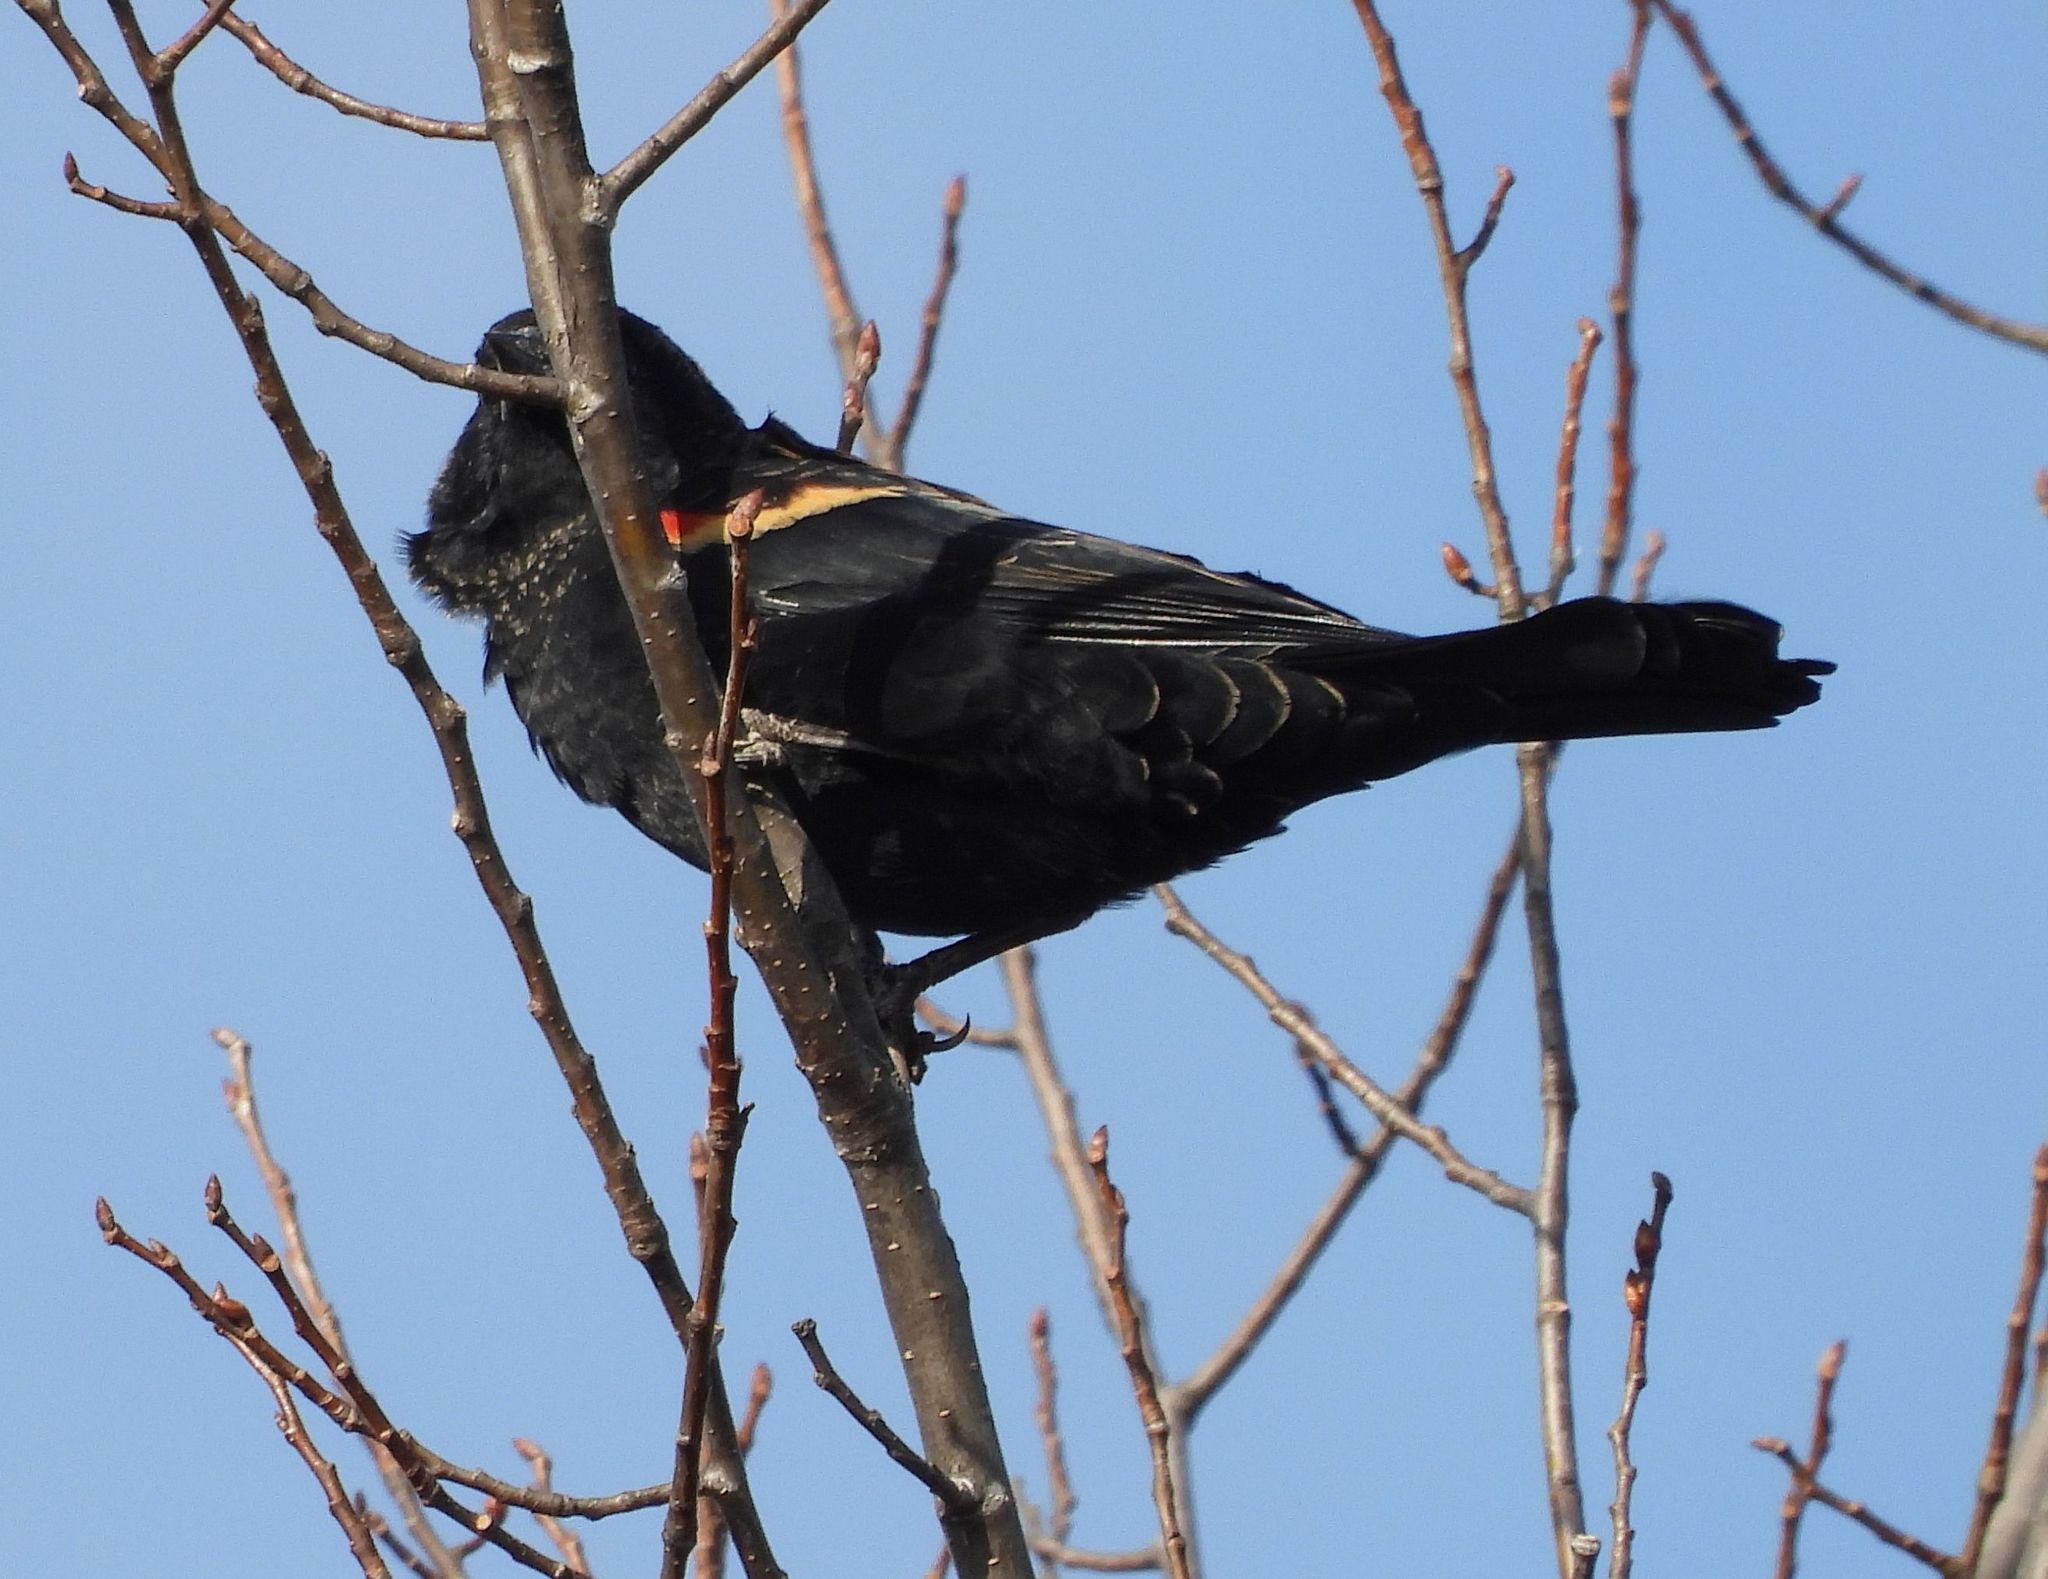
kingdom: Animalia
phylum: Chordata
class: Aves
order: Passeriformes
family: Icteridae
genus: Agelaius
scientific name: Agelaius phoeniceus
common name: Red-winged blackbird
